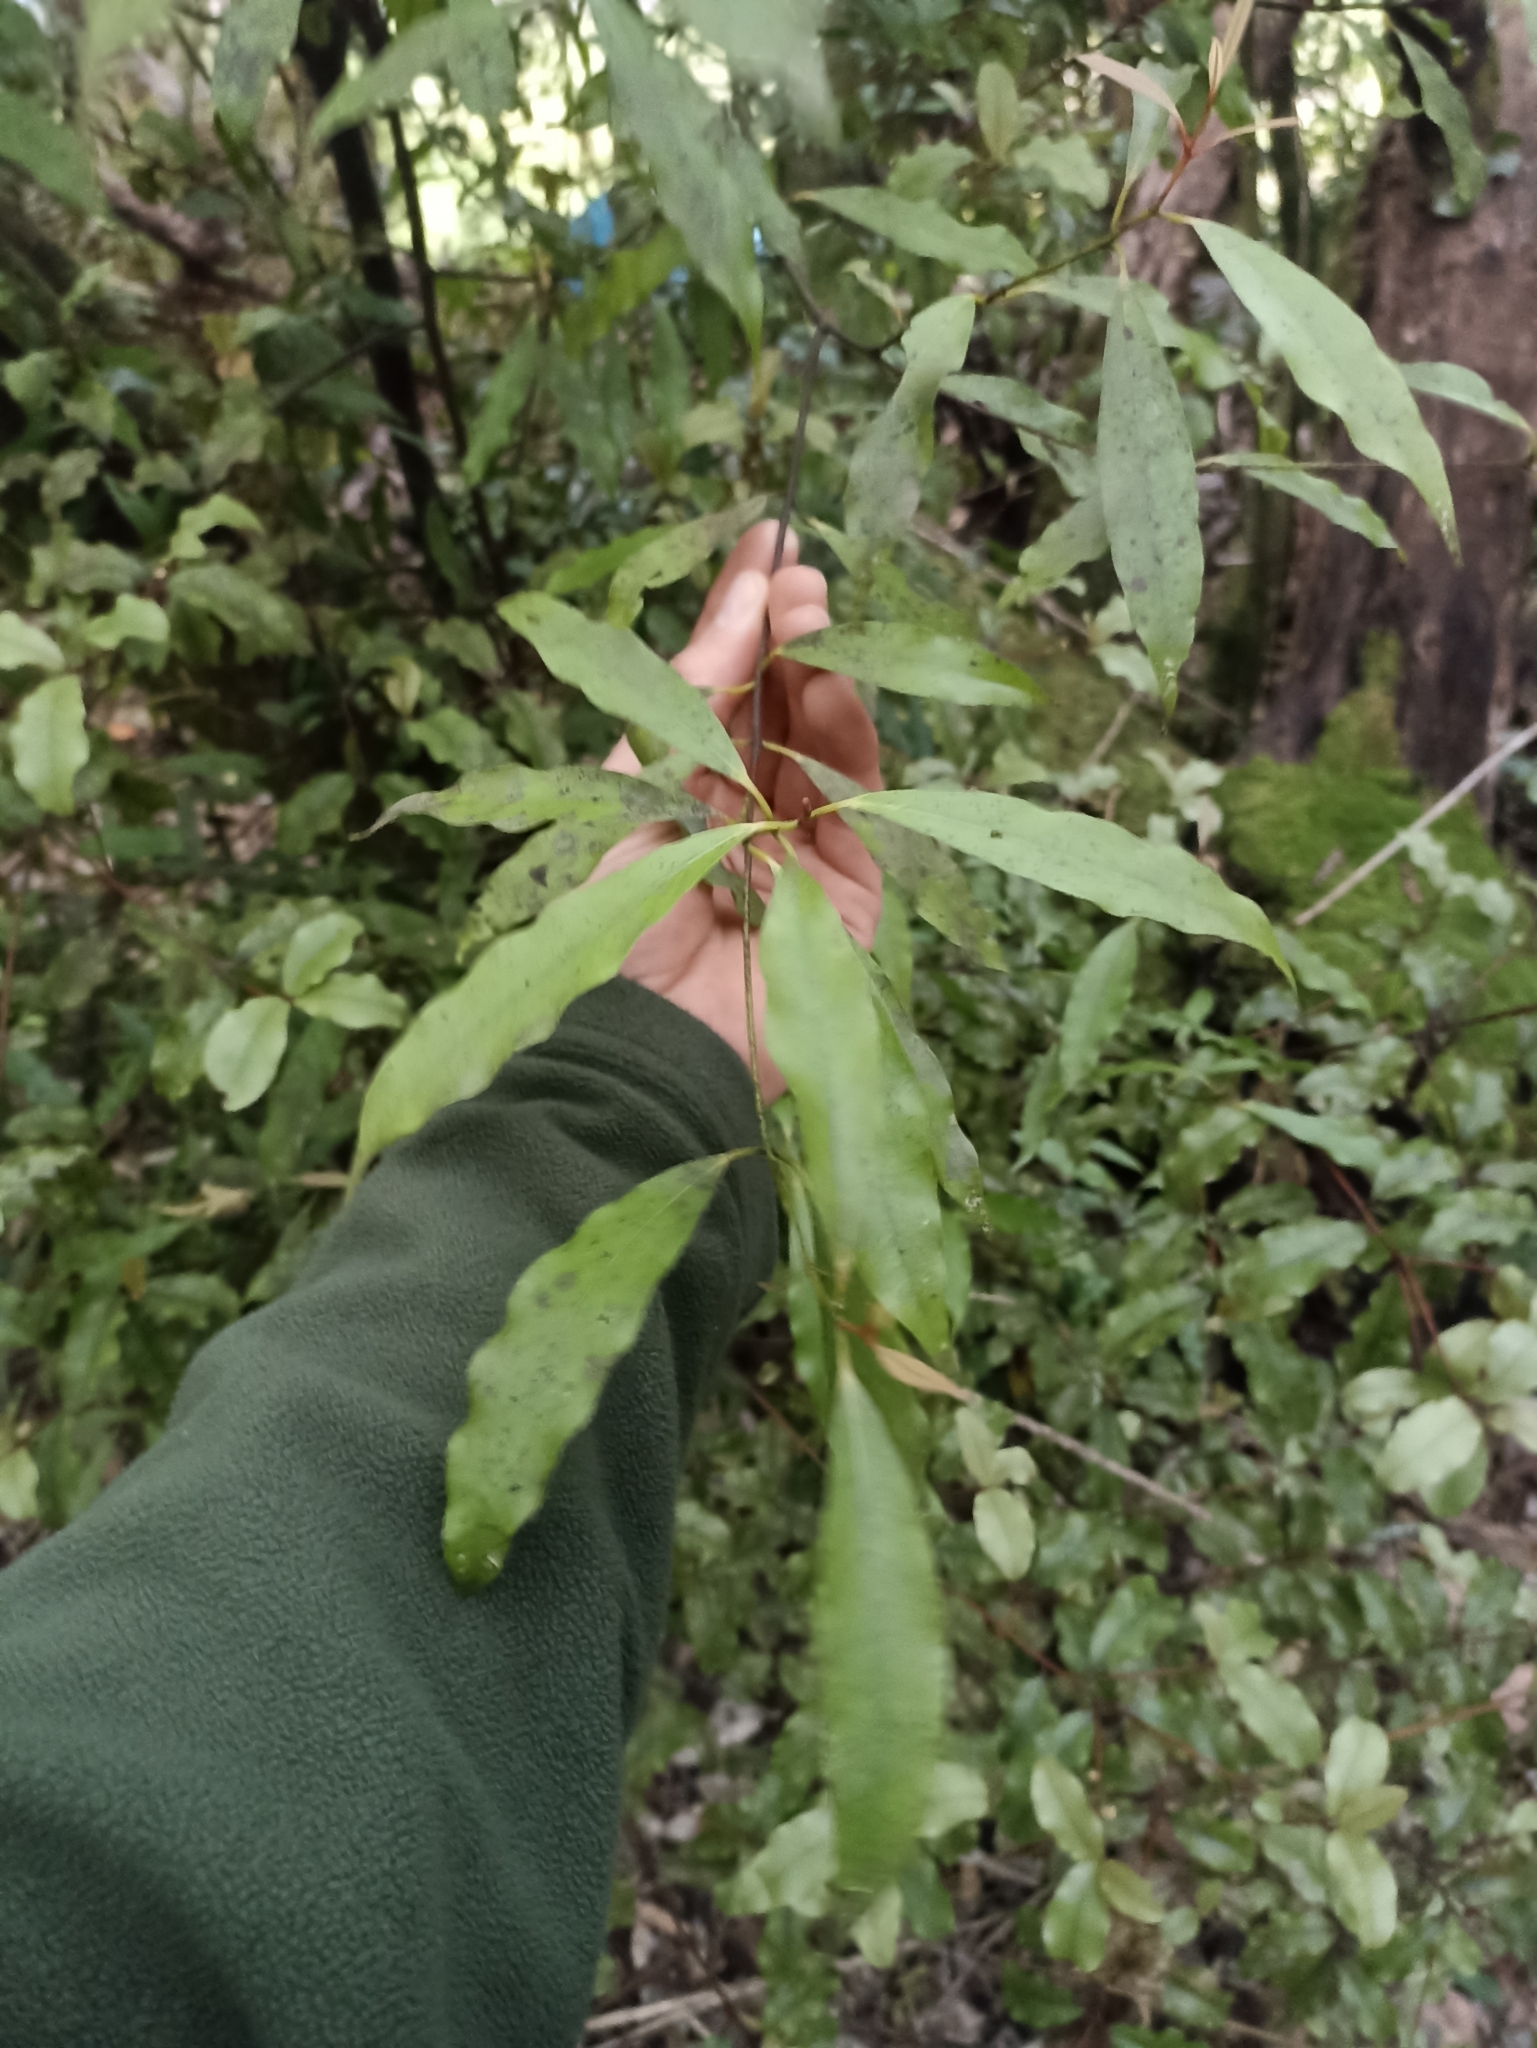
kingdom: Plantae
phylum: Tracheophyta
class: Magnoliopsida
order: Laurales
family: Lauraceae
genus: Beilschmiedia
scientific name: Beilschmiedia tawa
